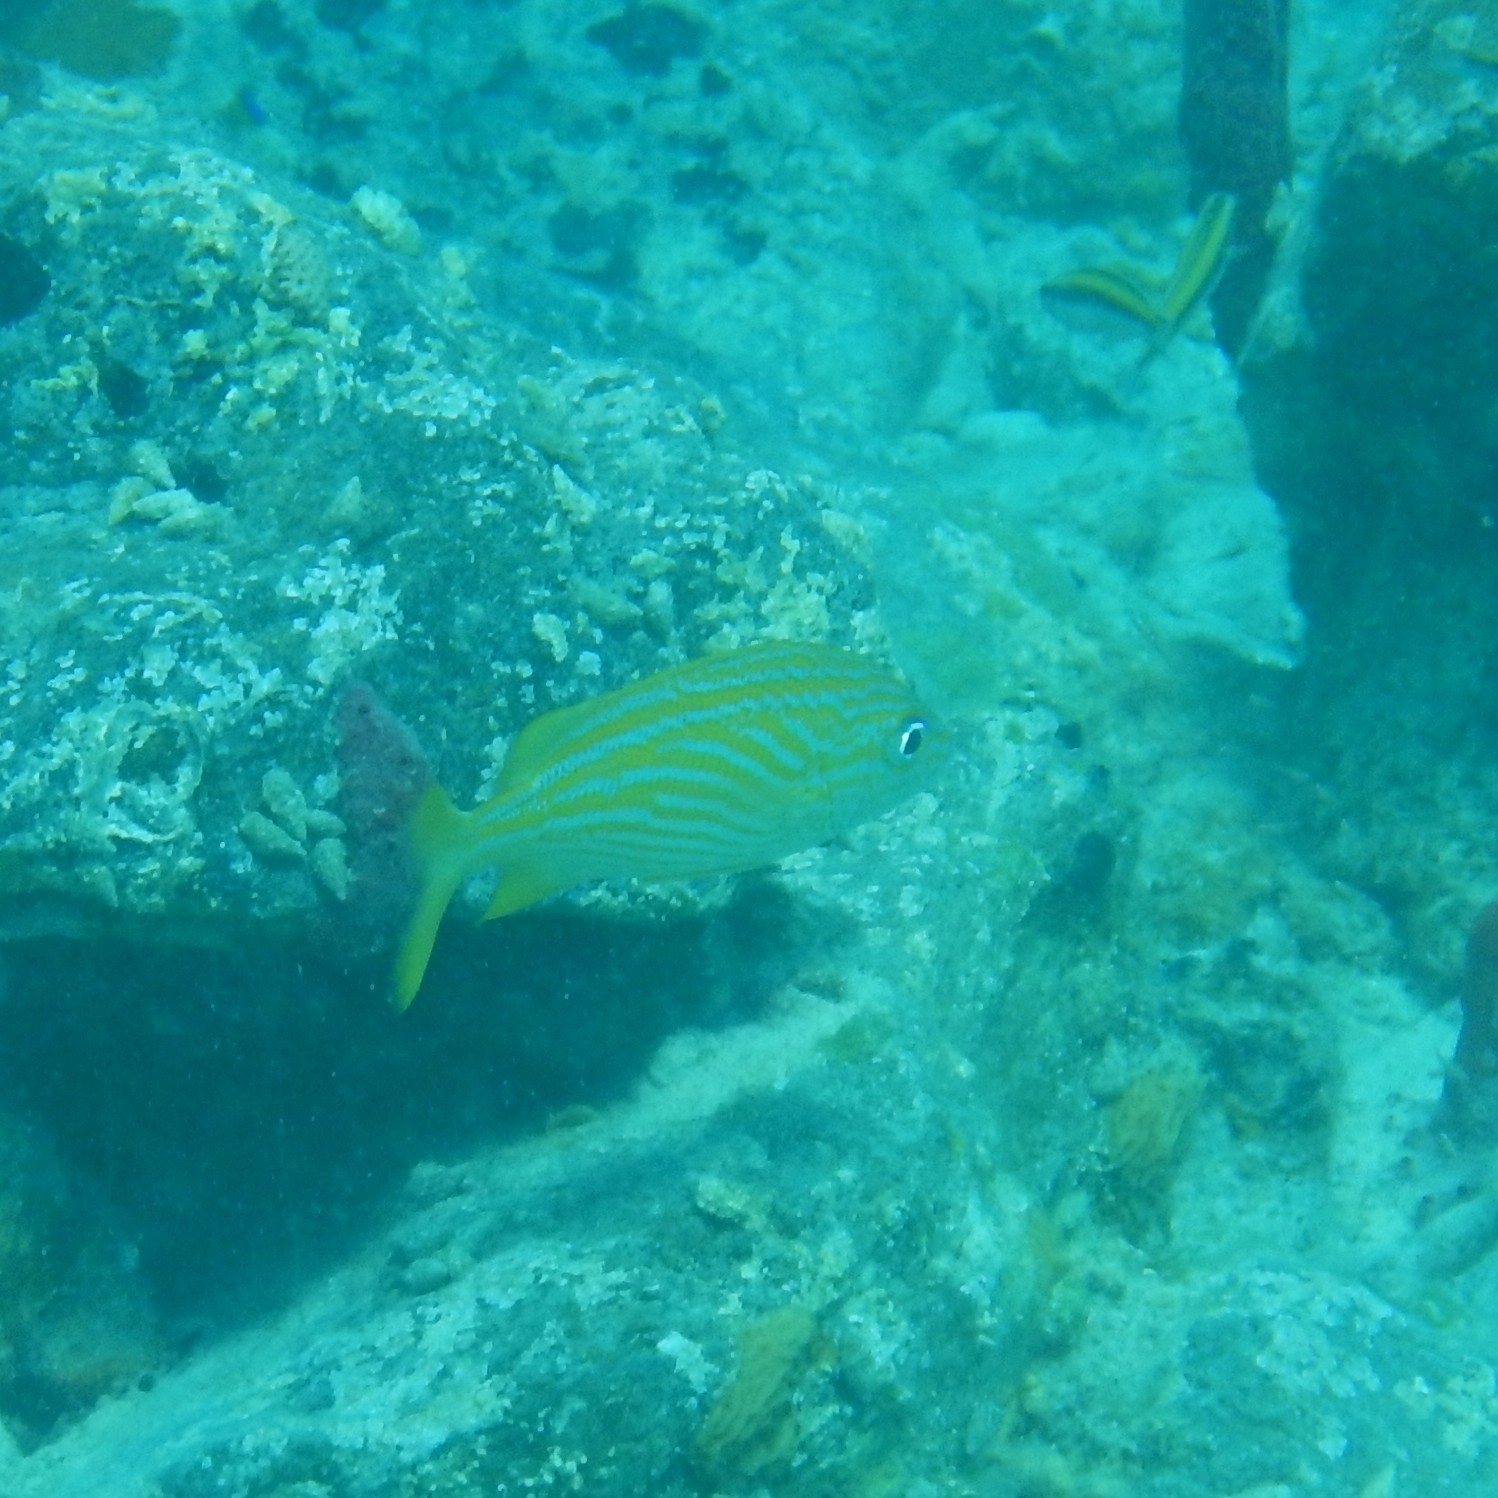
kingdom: Animalia
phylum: Chordata
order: Perciformes
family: Haemulidae
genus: Haemulon
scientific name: Haemulon flavolineatum
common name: French grunt
